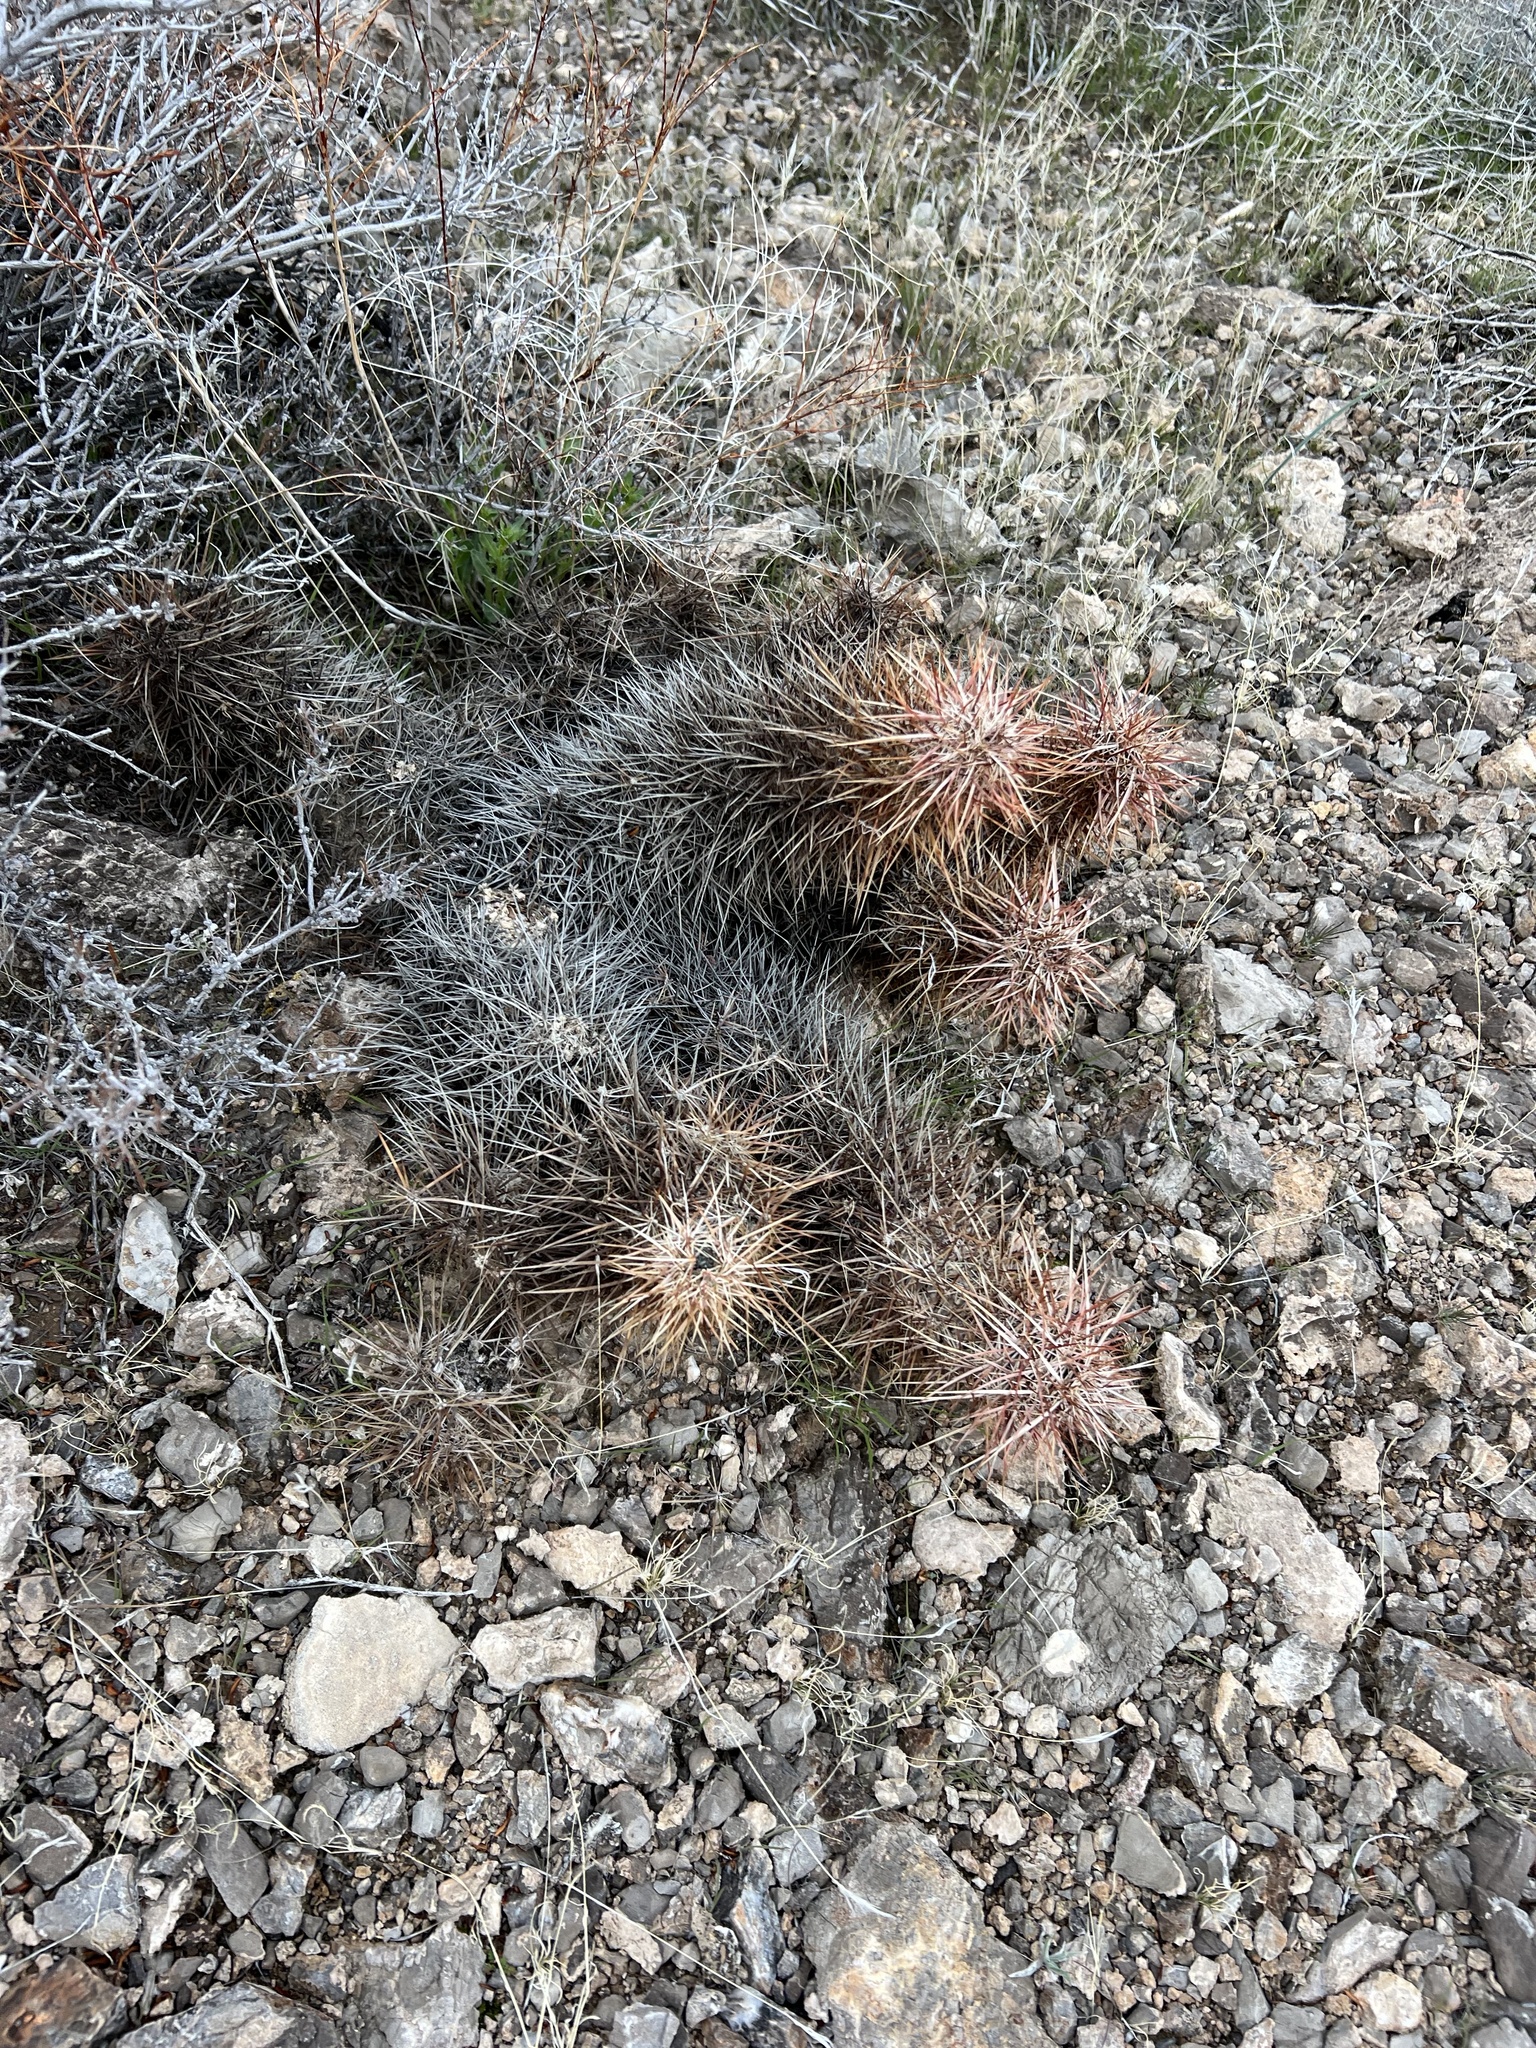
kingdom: Plantae
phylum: Tracheophyta
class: Magnoliopsida
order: Caryophyllales
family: Cactaceae
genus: Echinocereus
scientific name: Echinocereus engelmannii
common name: Engelmann's hedgehog cactus
